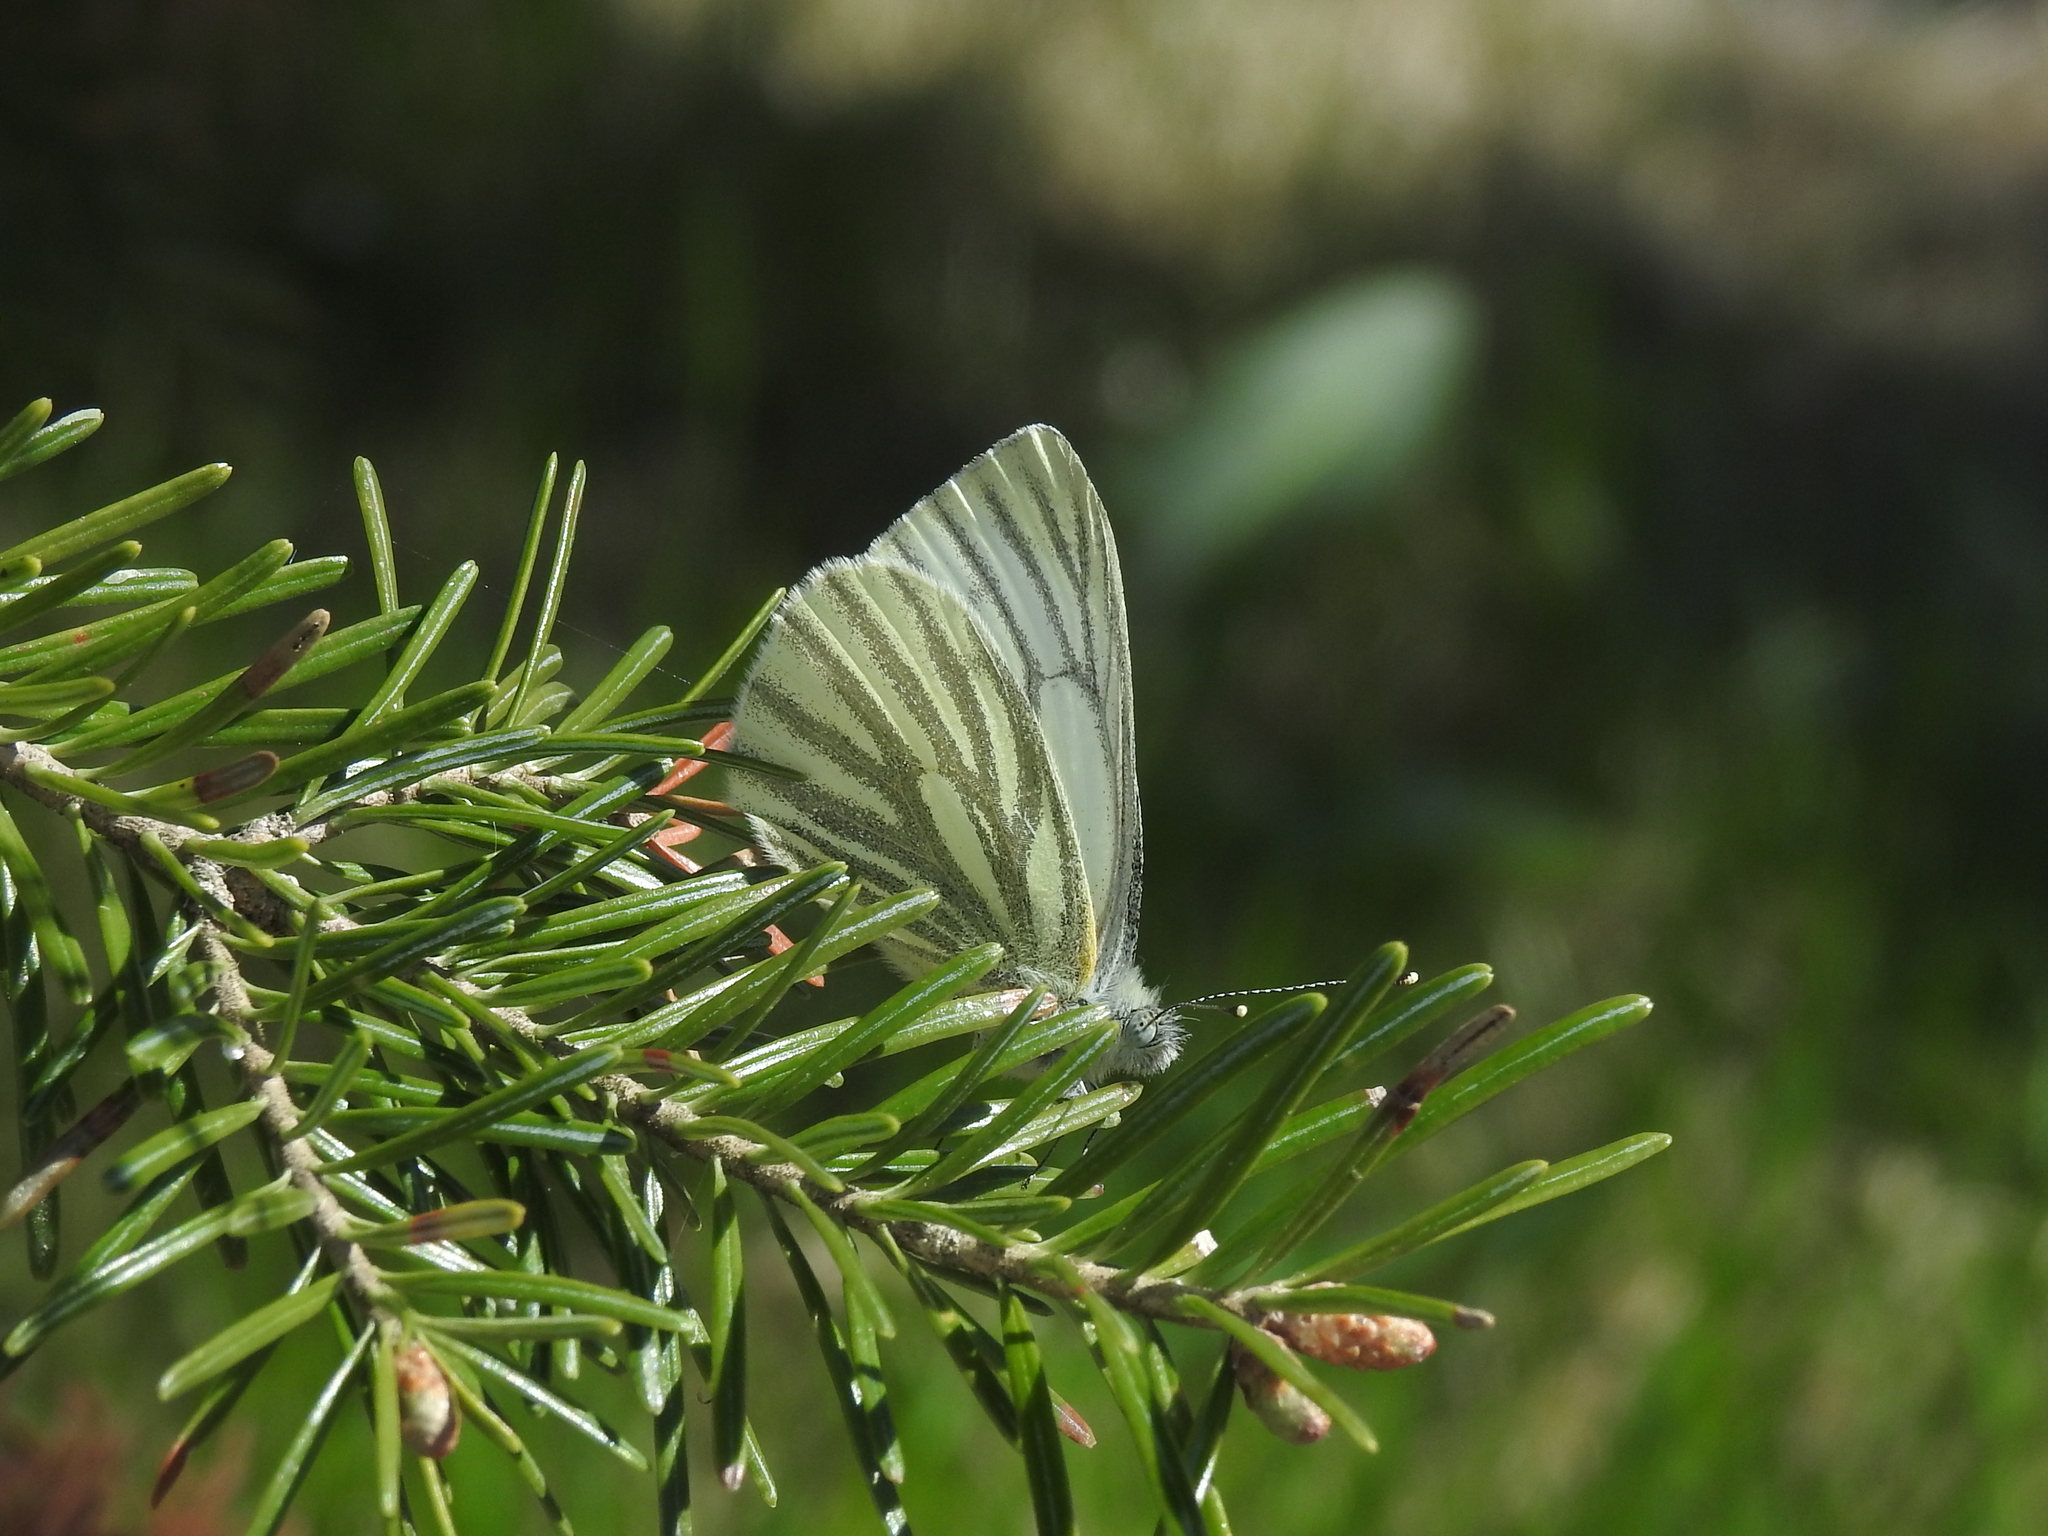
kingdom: Animalia
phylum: Arthropoda
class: Insecta
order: Lepidoptera
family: Pieridae
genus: Pieris
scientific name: Pieris napi
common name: Green-veined white
